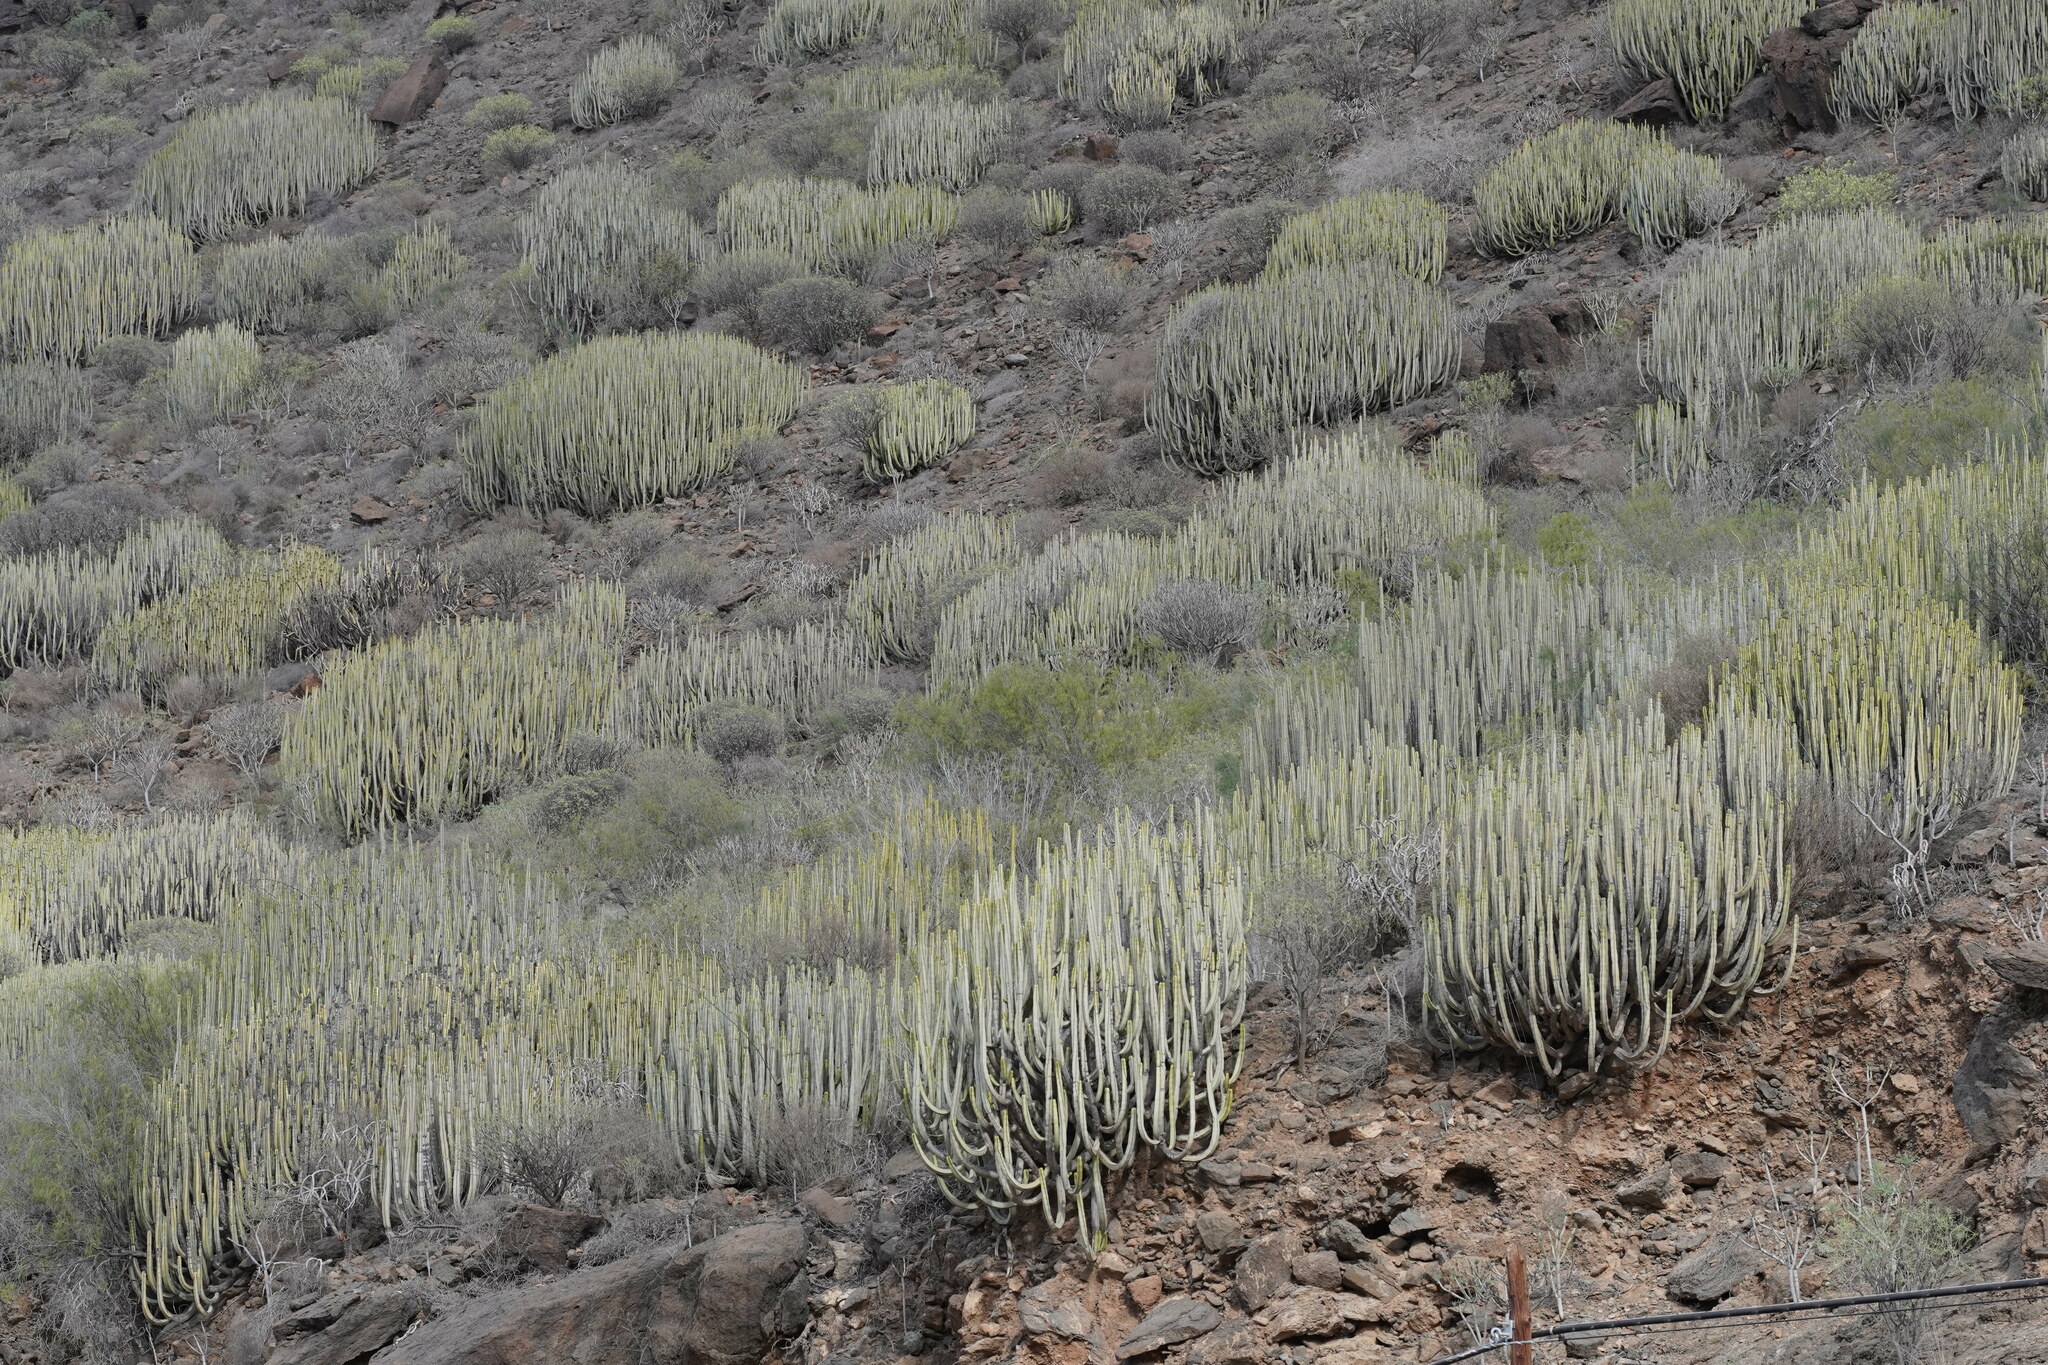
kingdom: Plantae
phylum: Tracheophyta
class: Magnoliopsida
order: Malpighiales
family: Euphorbiaceae
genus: Euphorbia
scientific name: Euphorbia canariensis
